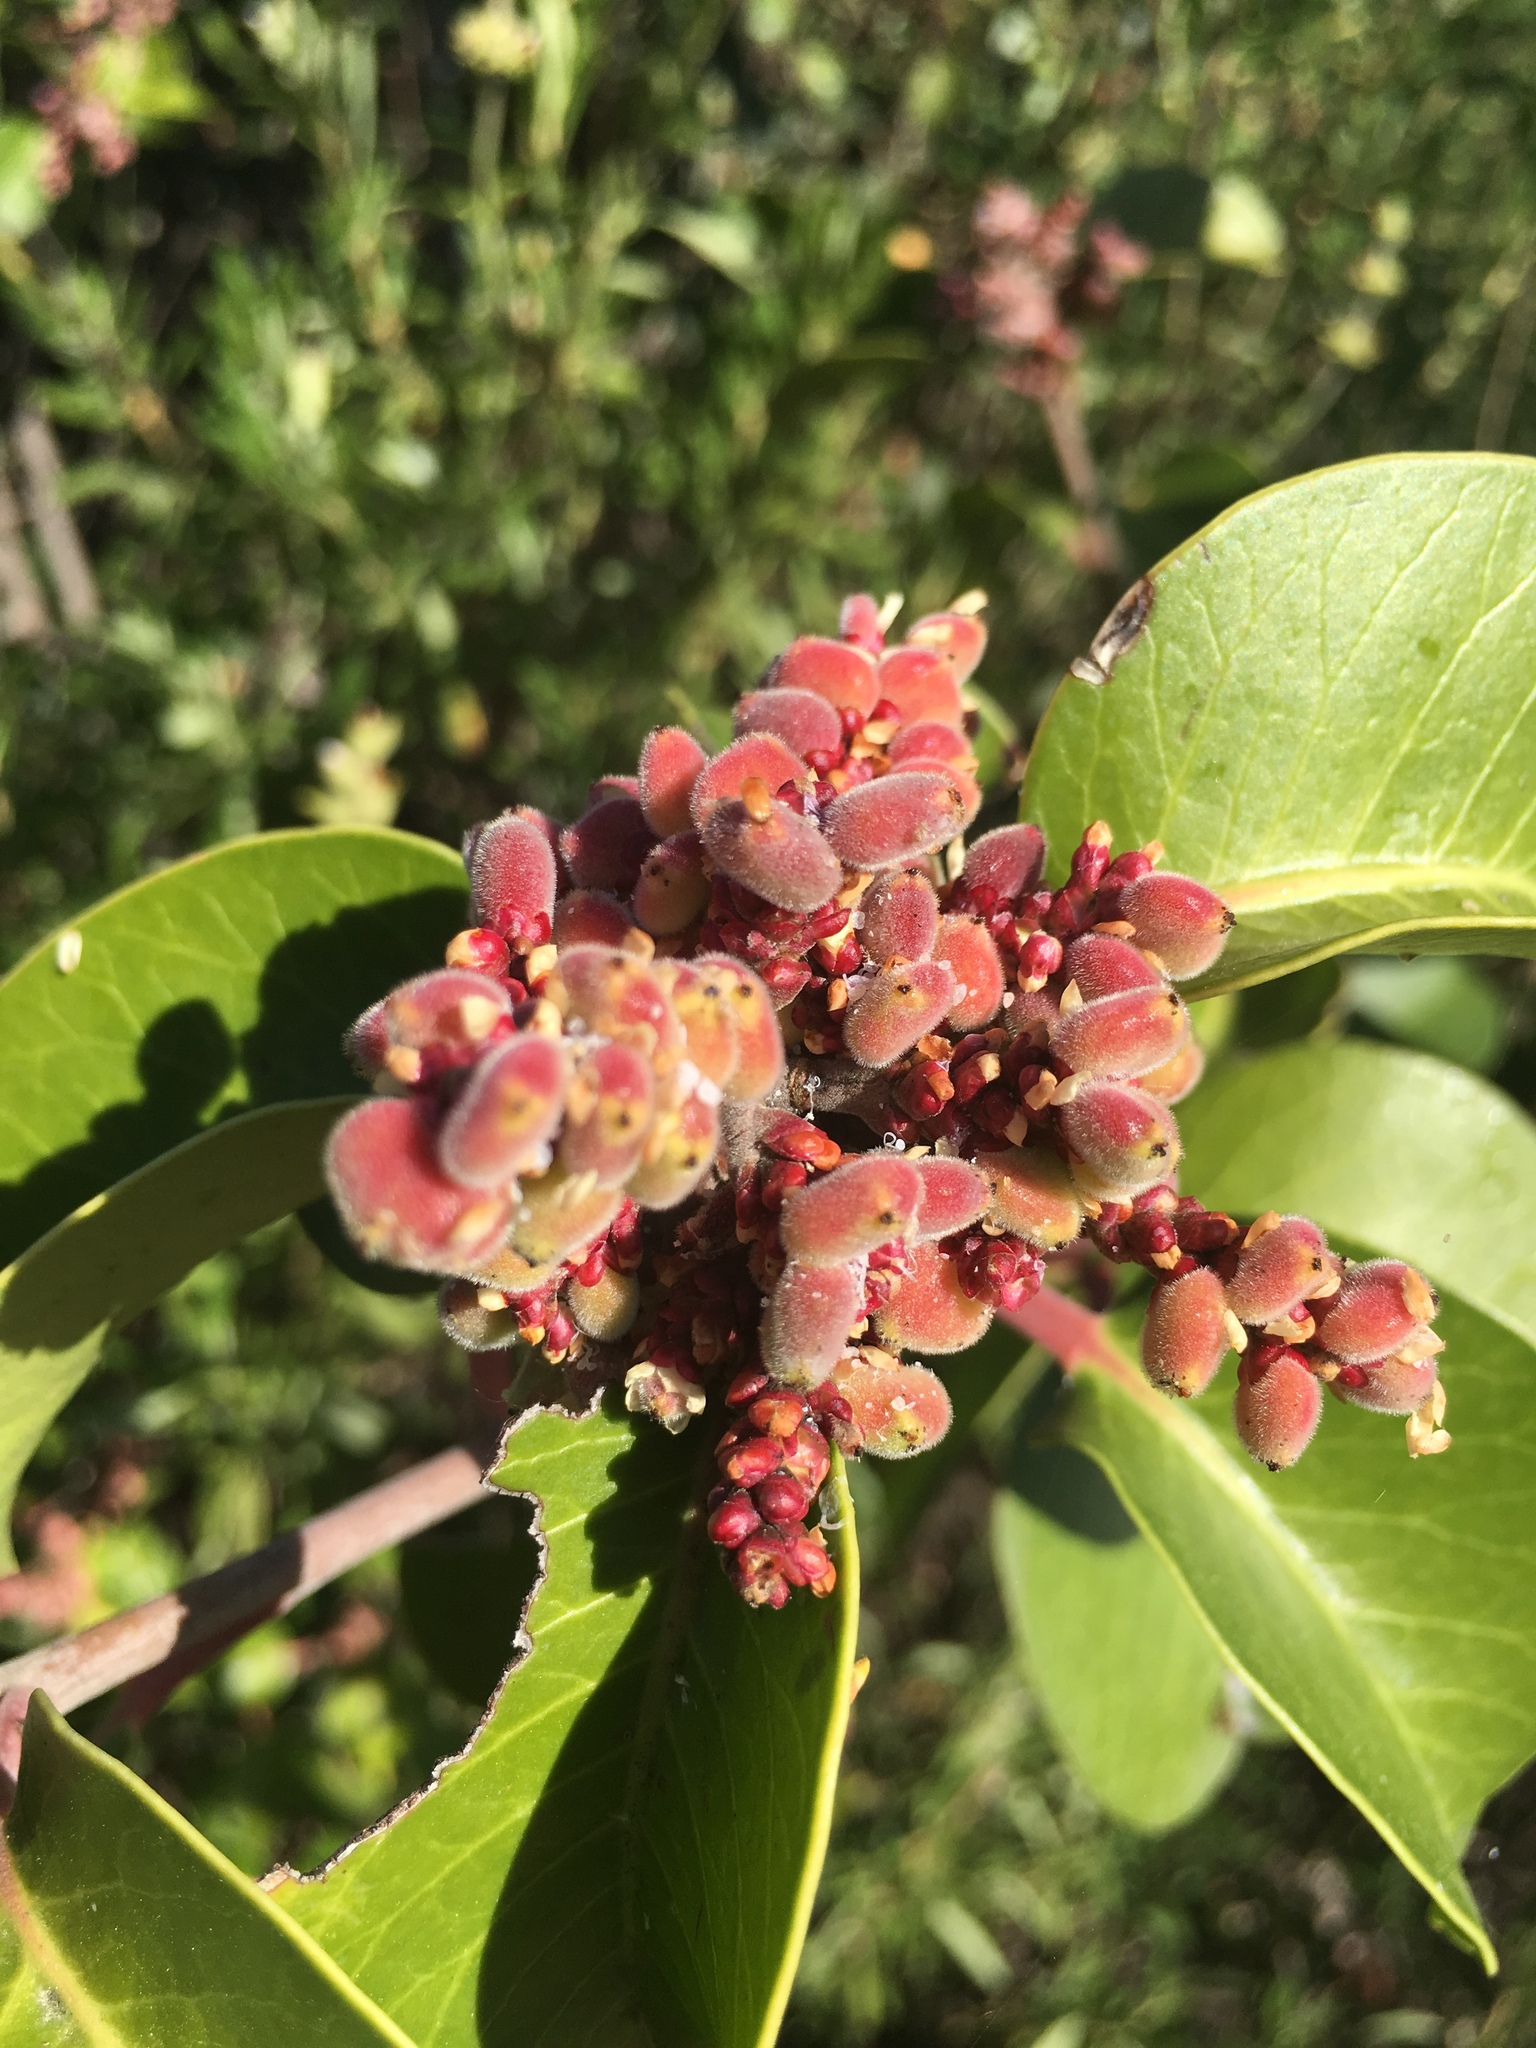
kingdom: Plantae
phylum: Tracheophyta
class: Magnoliopsida
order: Sapindales
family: Anacardiaceae
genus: Rhus
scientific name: Rhus ovata
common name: Sugar sumac
